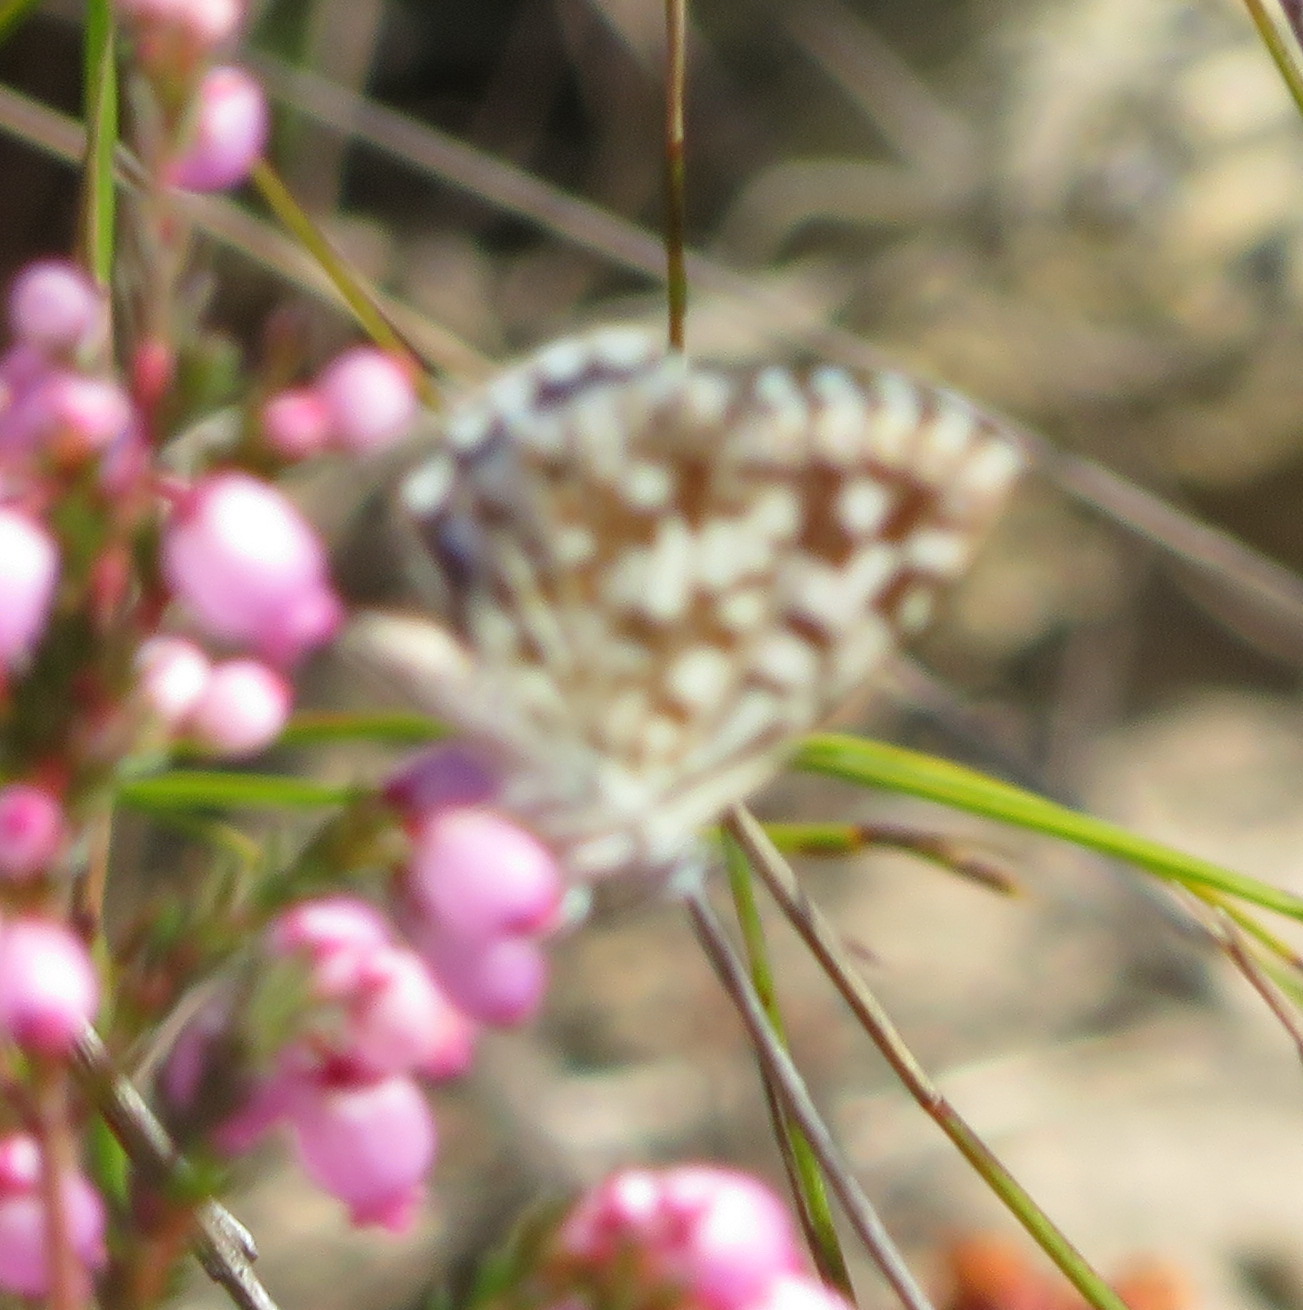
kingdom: Animalia
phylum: Arthropoda
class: Insecta
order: Lepidoptera
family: Lycaenidae
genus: Tarucus
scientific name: Tarucus thespis
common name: Vivid dotted blue
